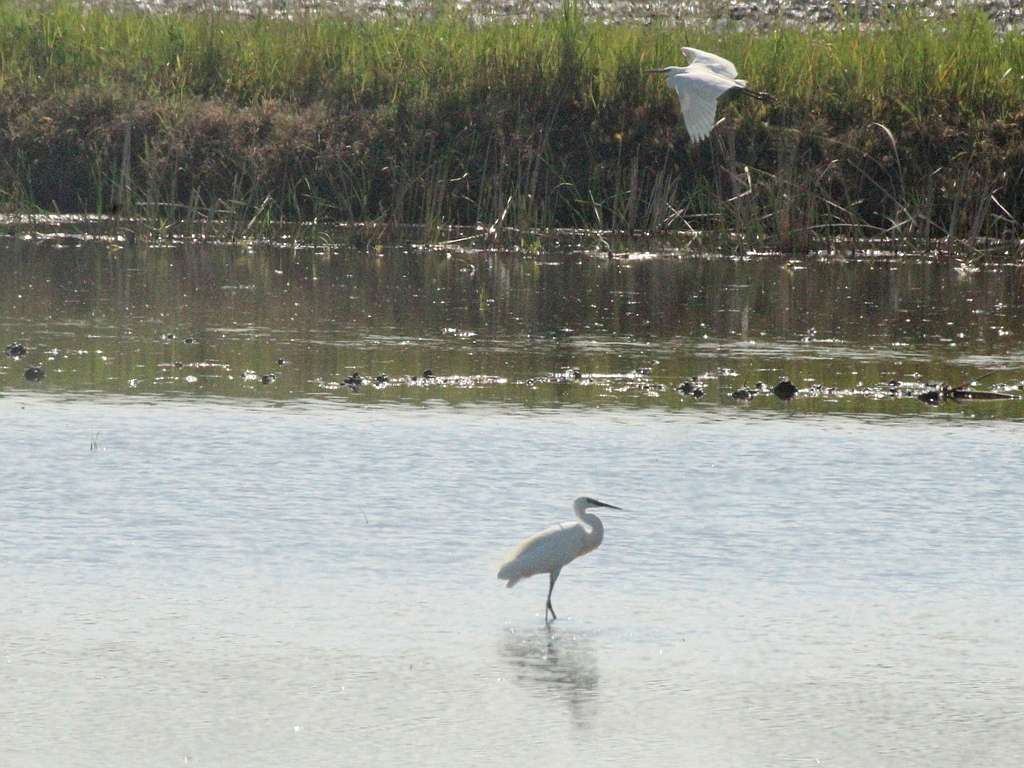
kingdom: Animalia
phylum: Chordata
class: Aves
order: Pelecaniformes
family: Ardeidae
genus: Egretta
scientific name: Egretta garzetta
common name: Little egret
